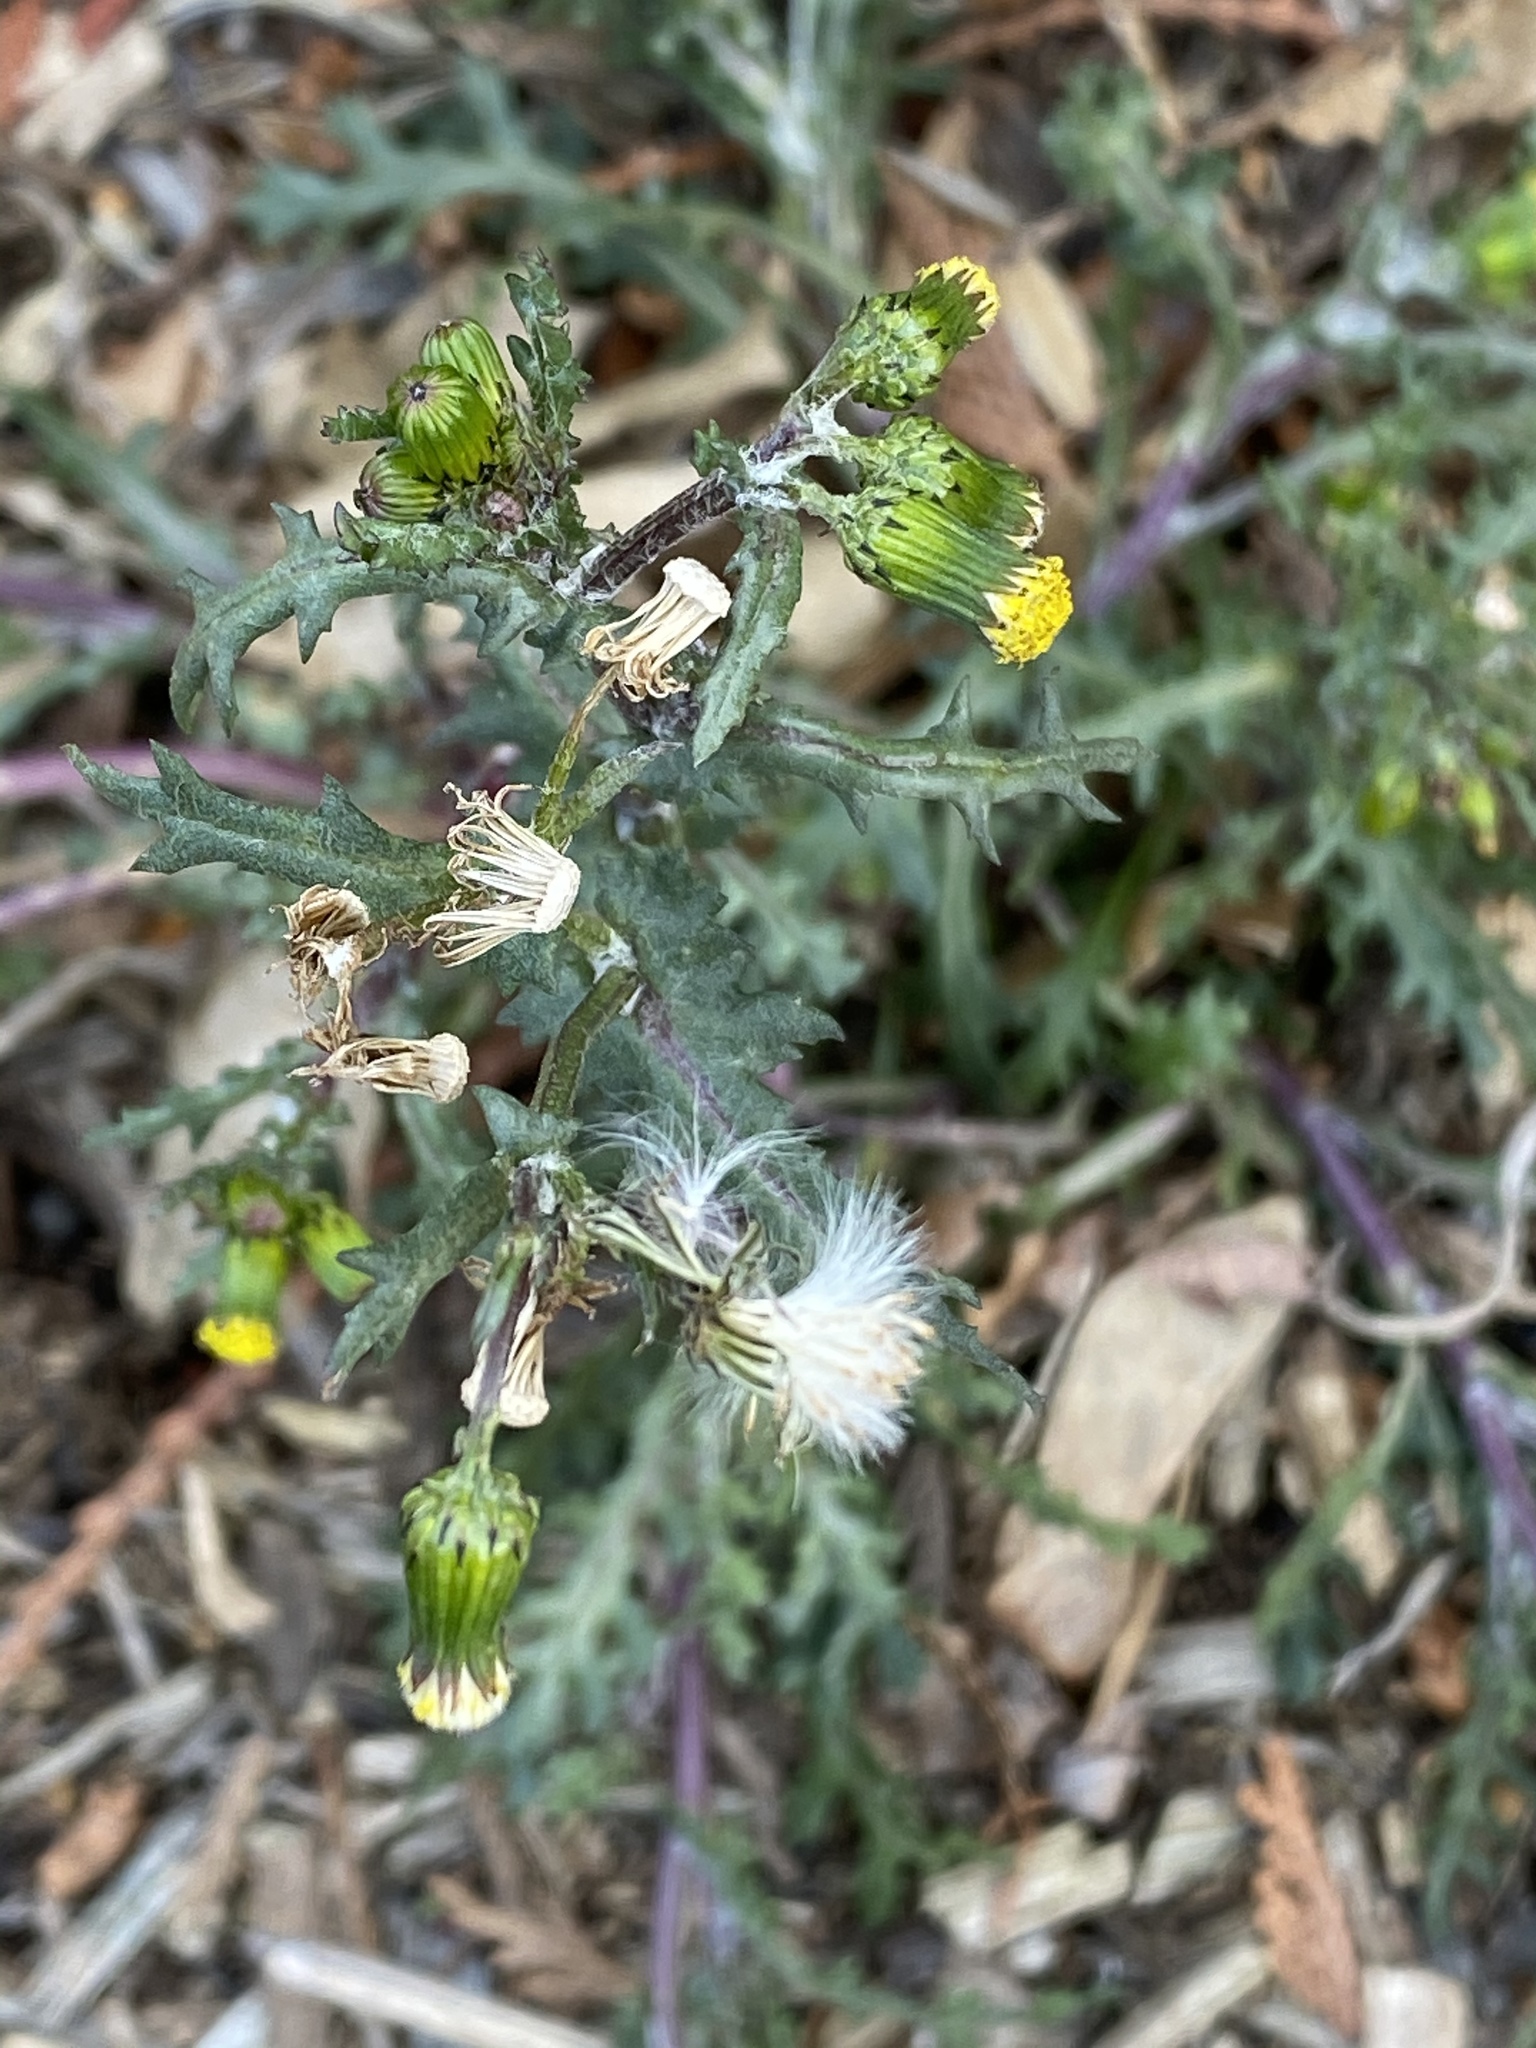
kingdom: Plantae
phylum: Tracheophyta
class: Magnoliopsida
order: Asterales
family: Asteraceae
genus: Senecio
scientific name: Senecio vulgaris
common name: Old-man-in-the-spring
